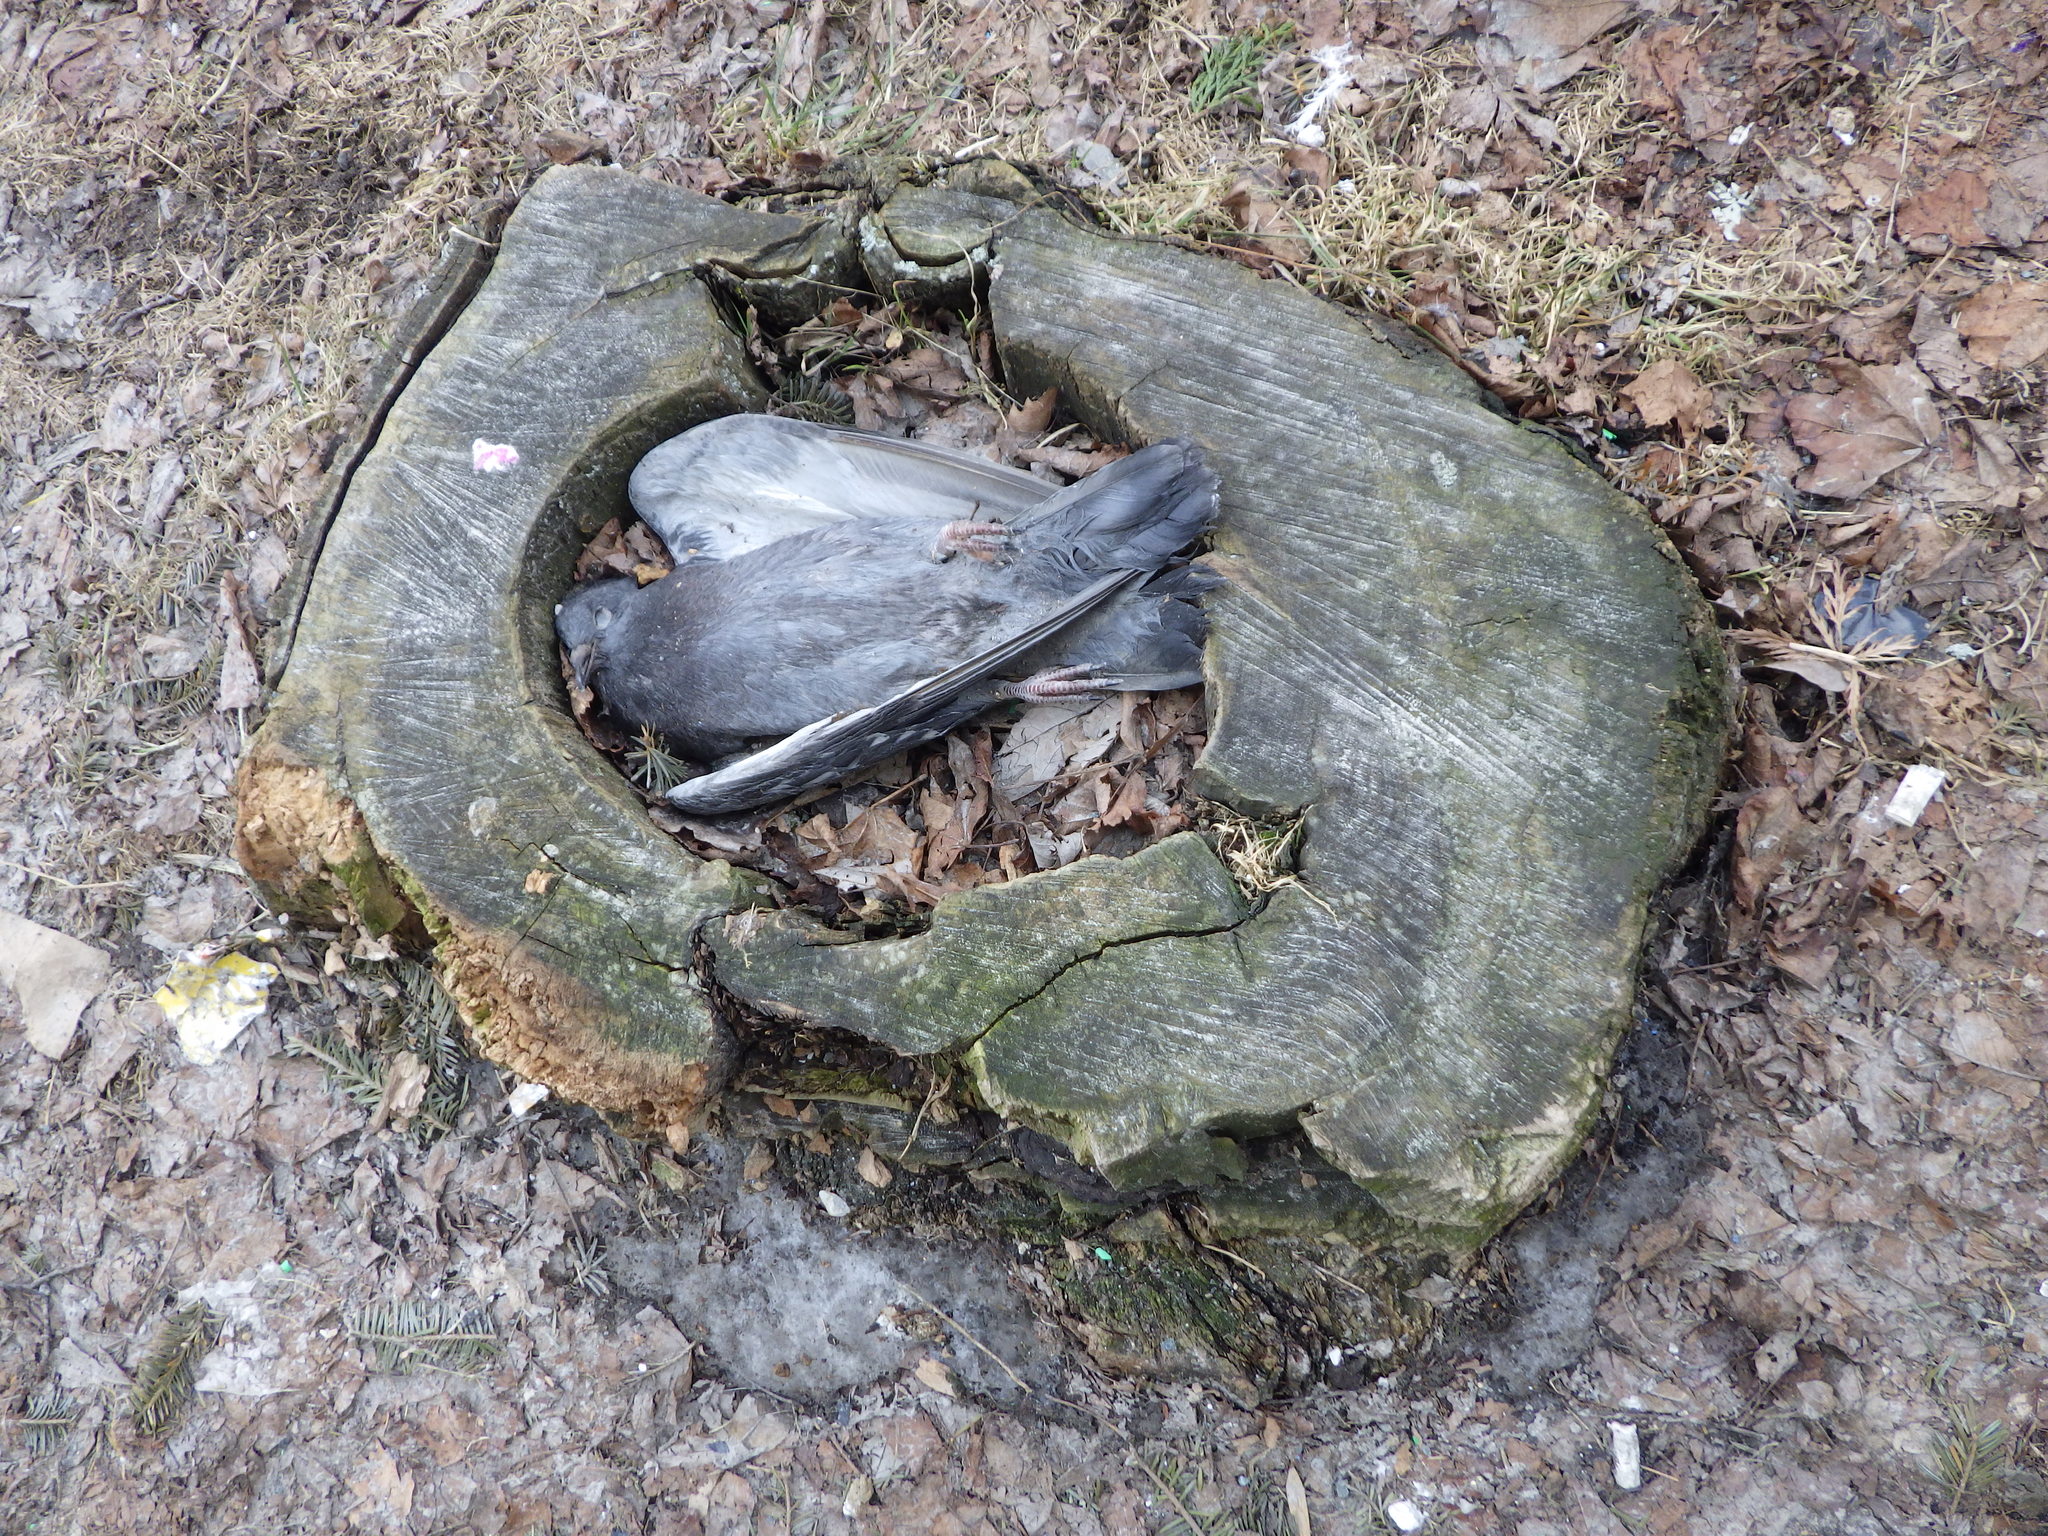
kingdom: Animalia
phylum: Chordata
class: Aves
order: Columbiformes
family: Columbidae
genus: Columba
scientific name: Columba livia
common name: Rock pigeon
